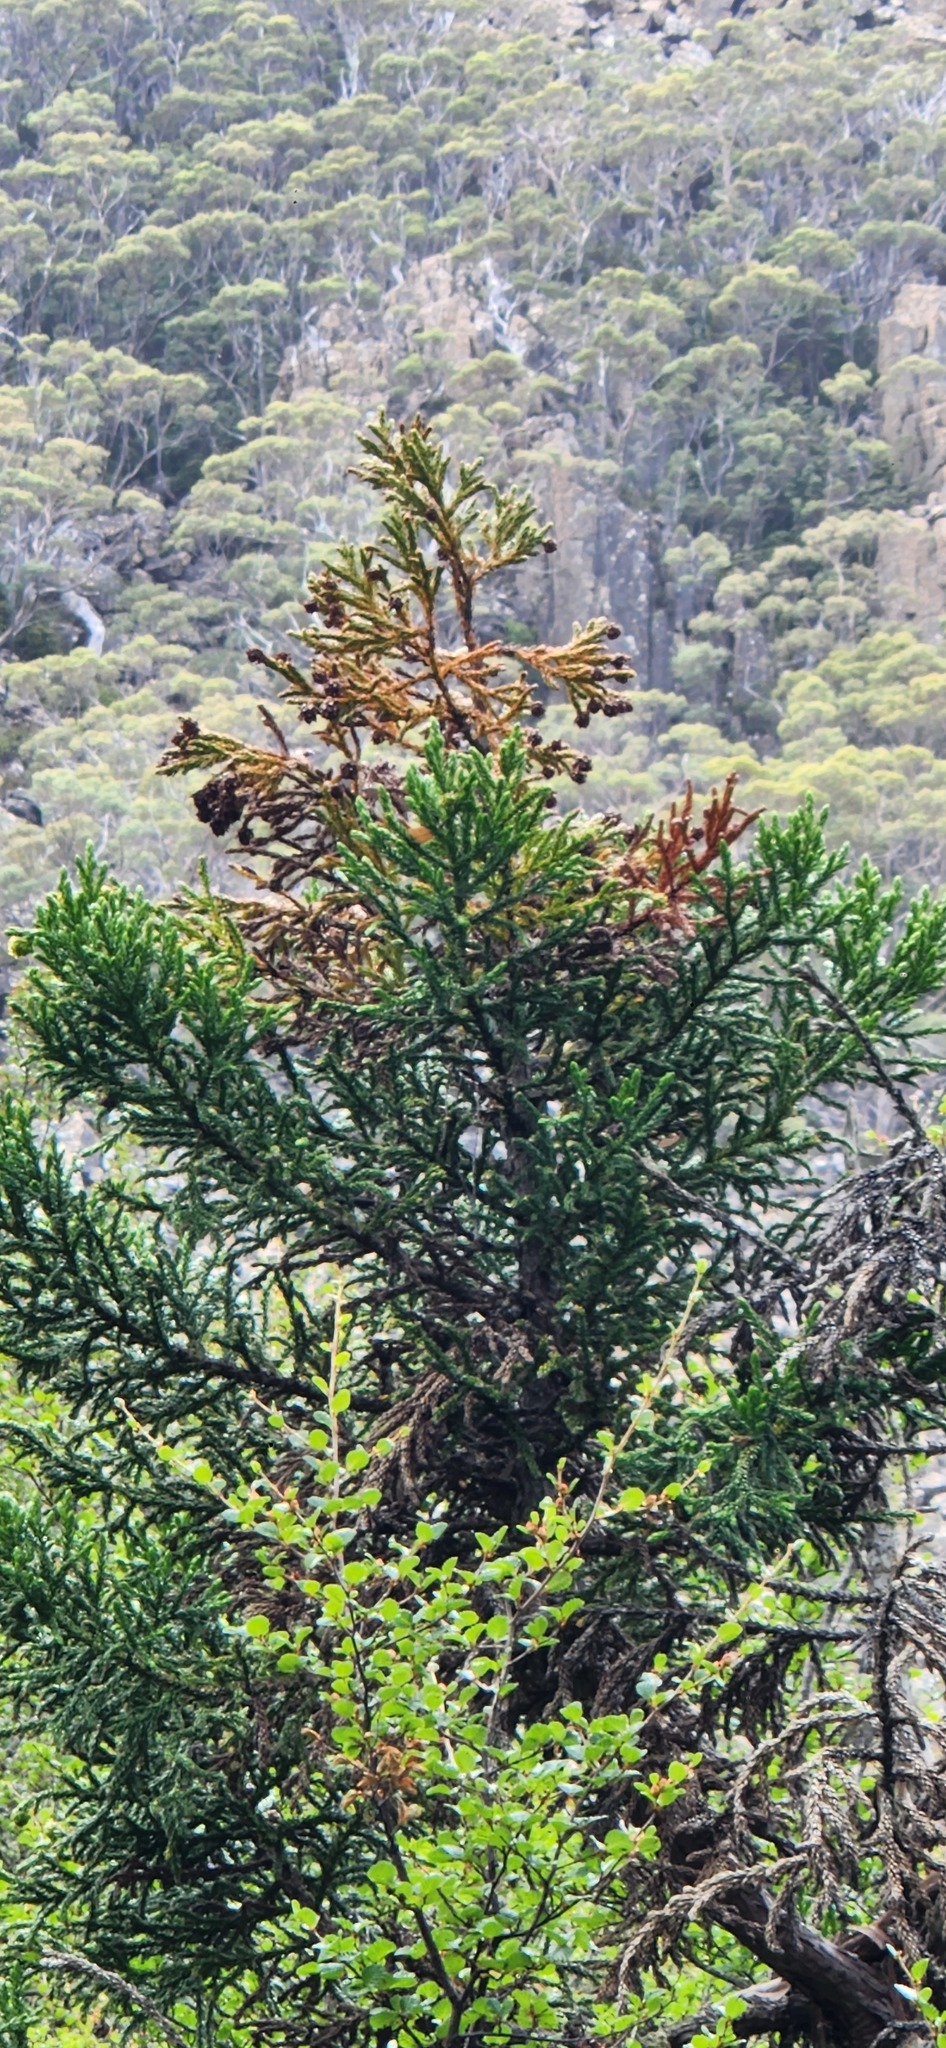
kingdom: Plantae
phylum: Tracheophyta
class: Pinopsida
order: Pinales
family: Cupressaceae
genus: Athrotaxis
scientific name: Athrotaxis selaginoides
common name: King william pine
